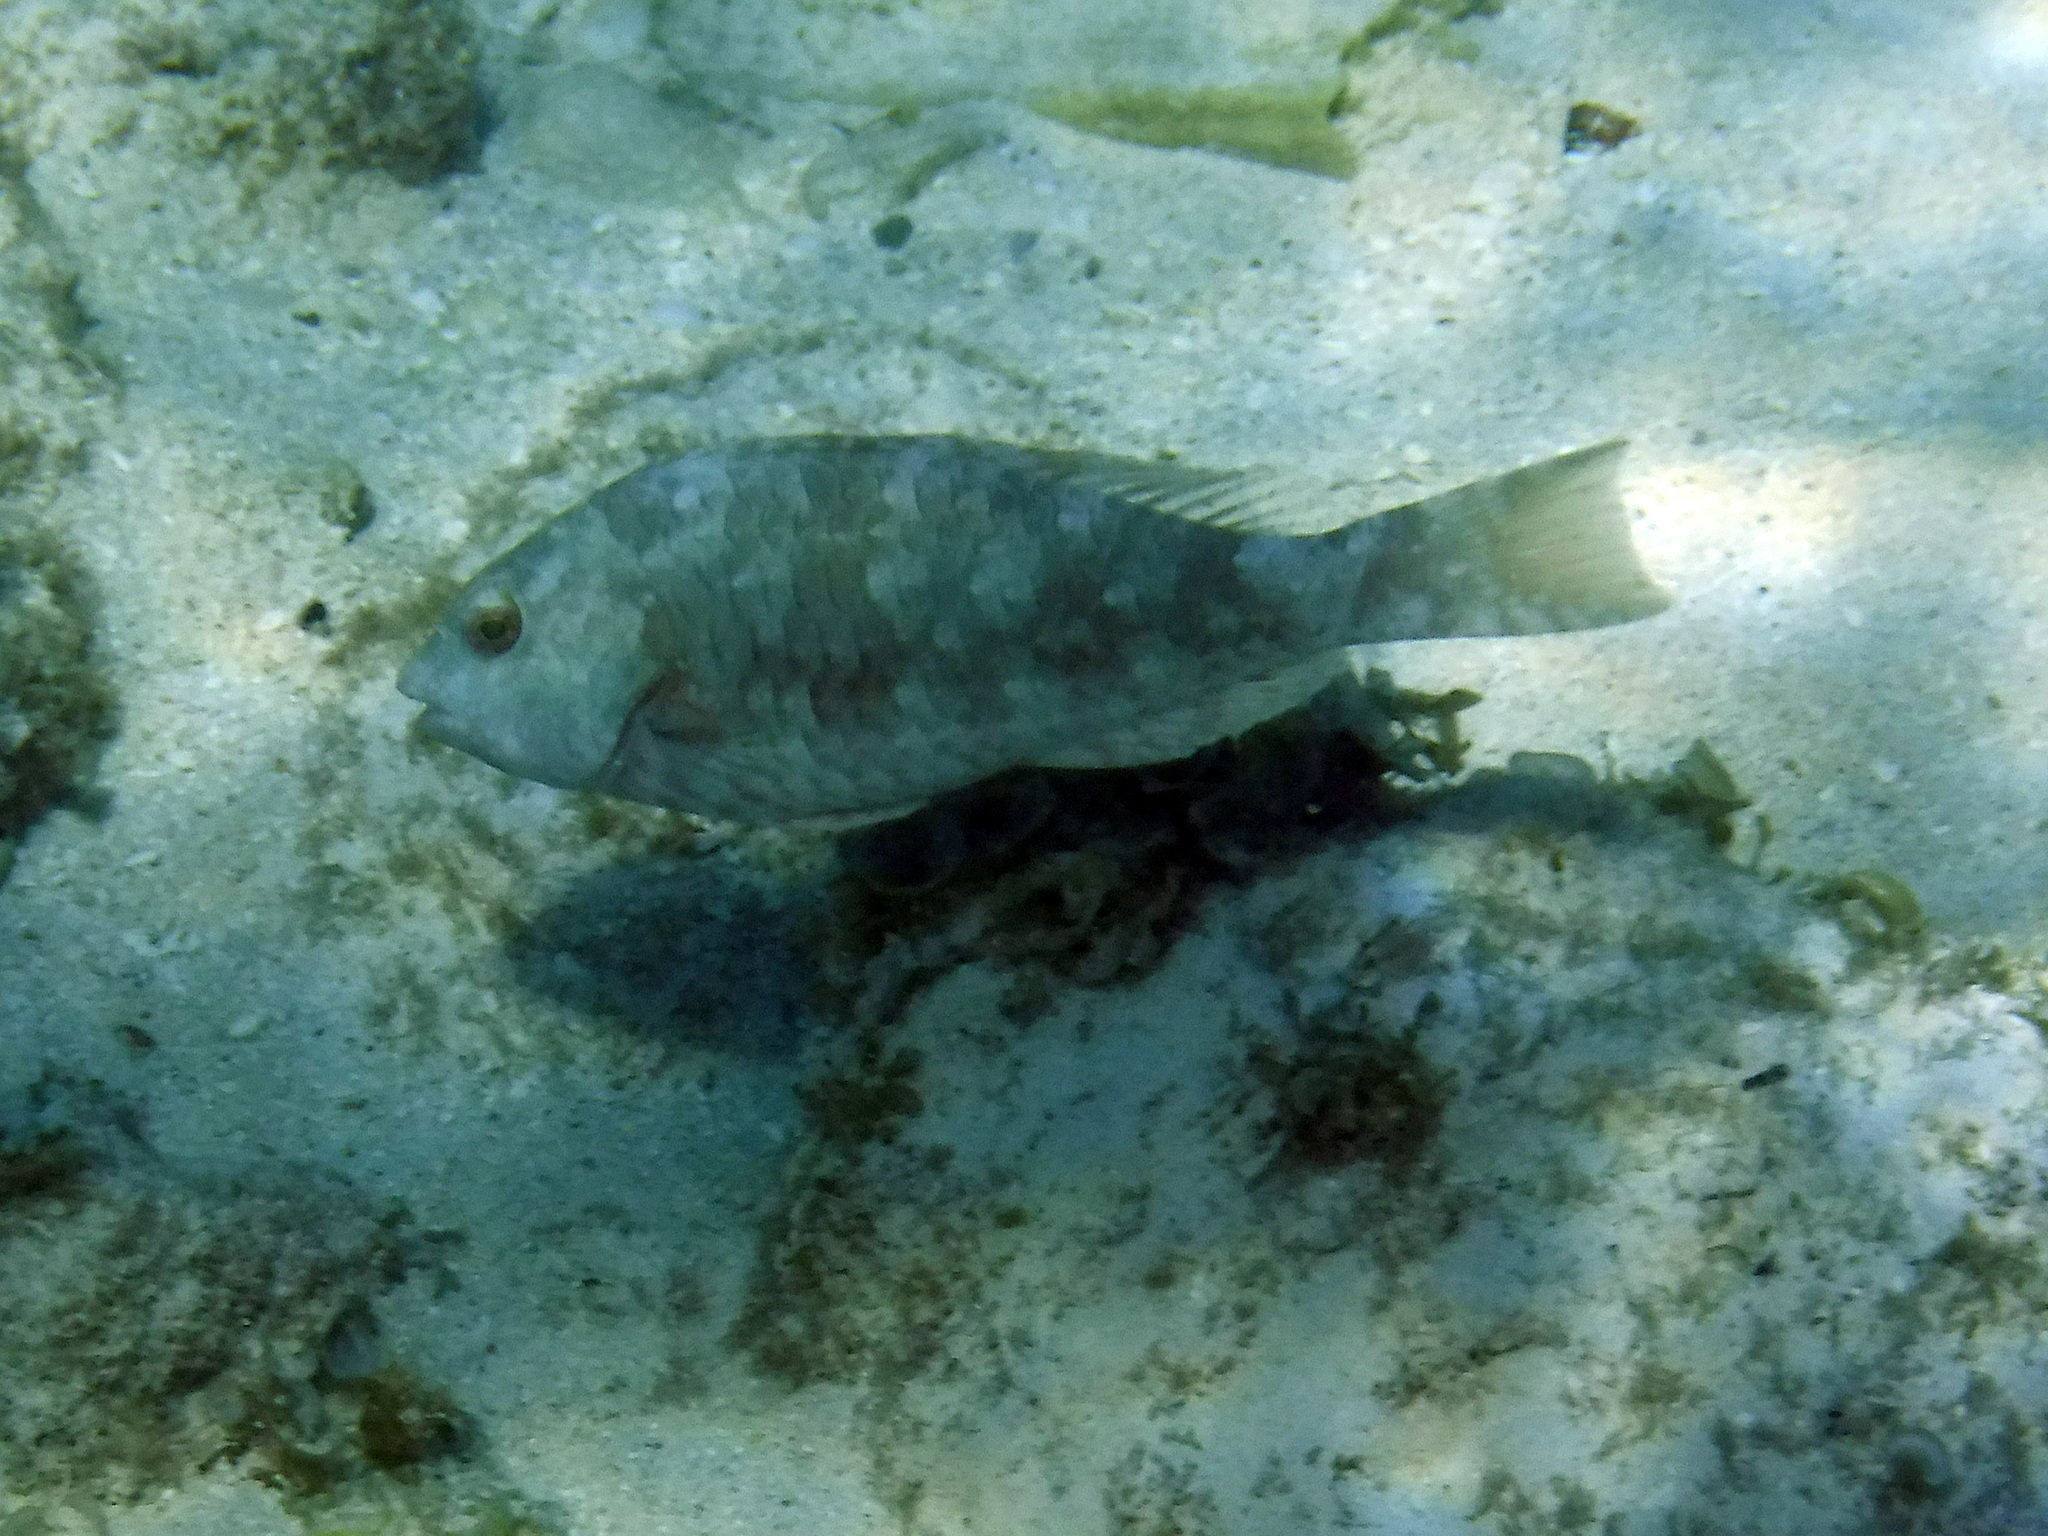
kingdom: Animalia
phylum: Chordata
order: Perciformes
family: Scaridae
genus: Sparisoma
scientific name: Sparisoma chrysopterum
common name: Redtail parrotfish
